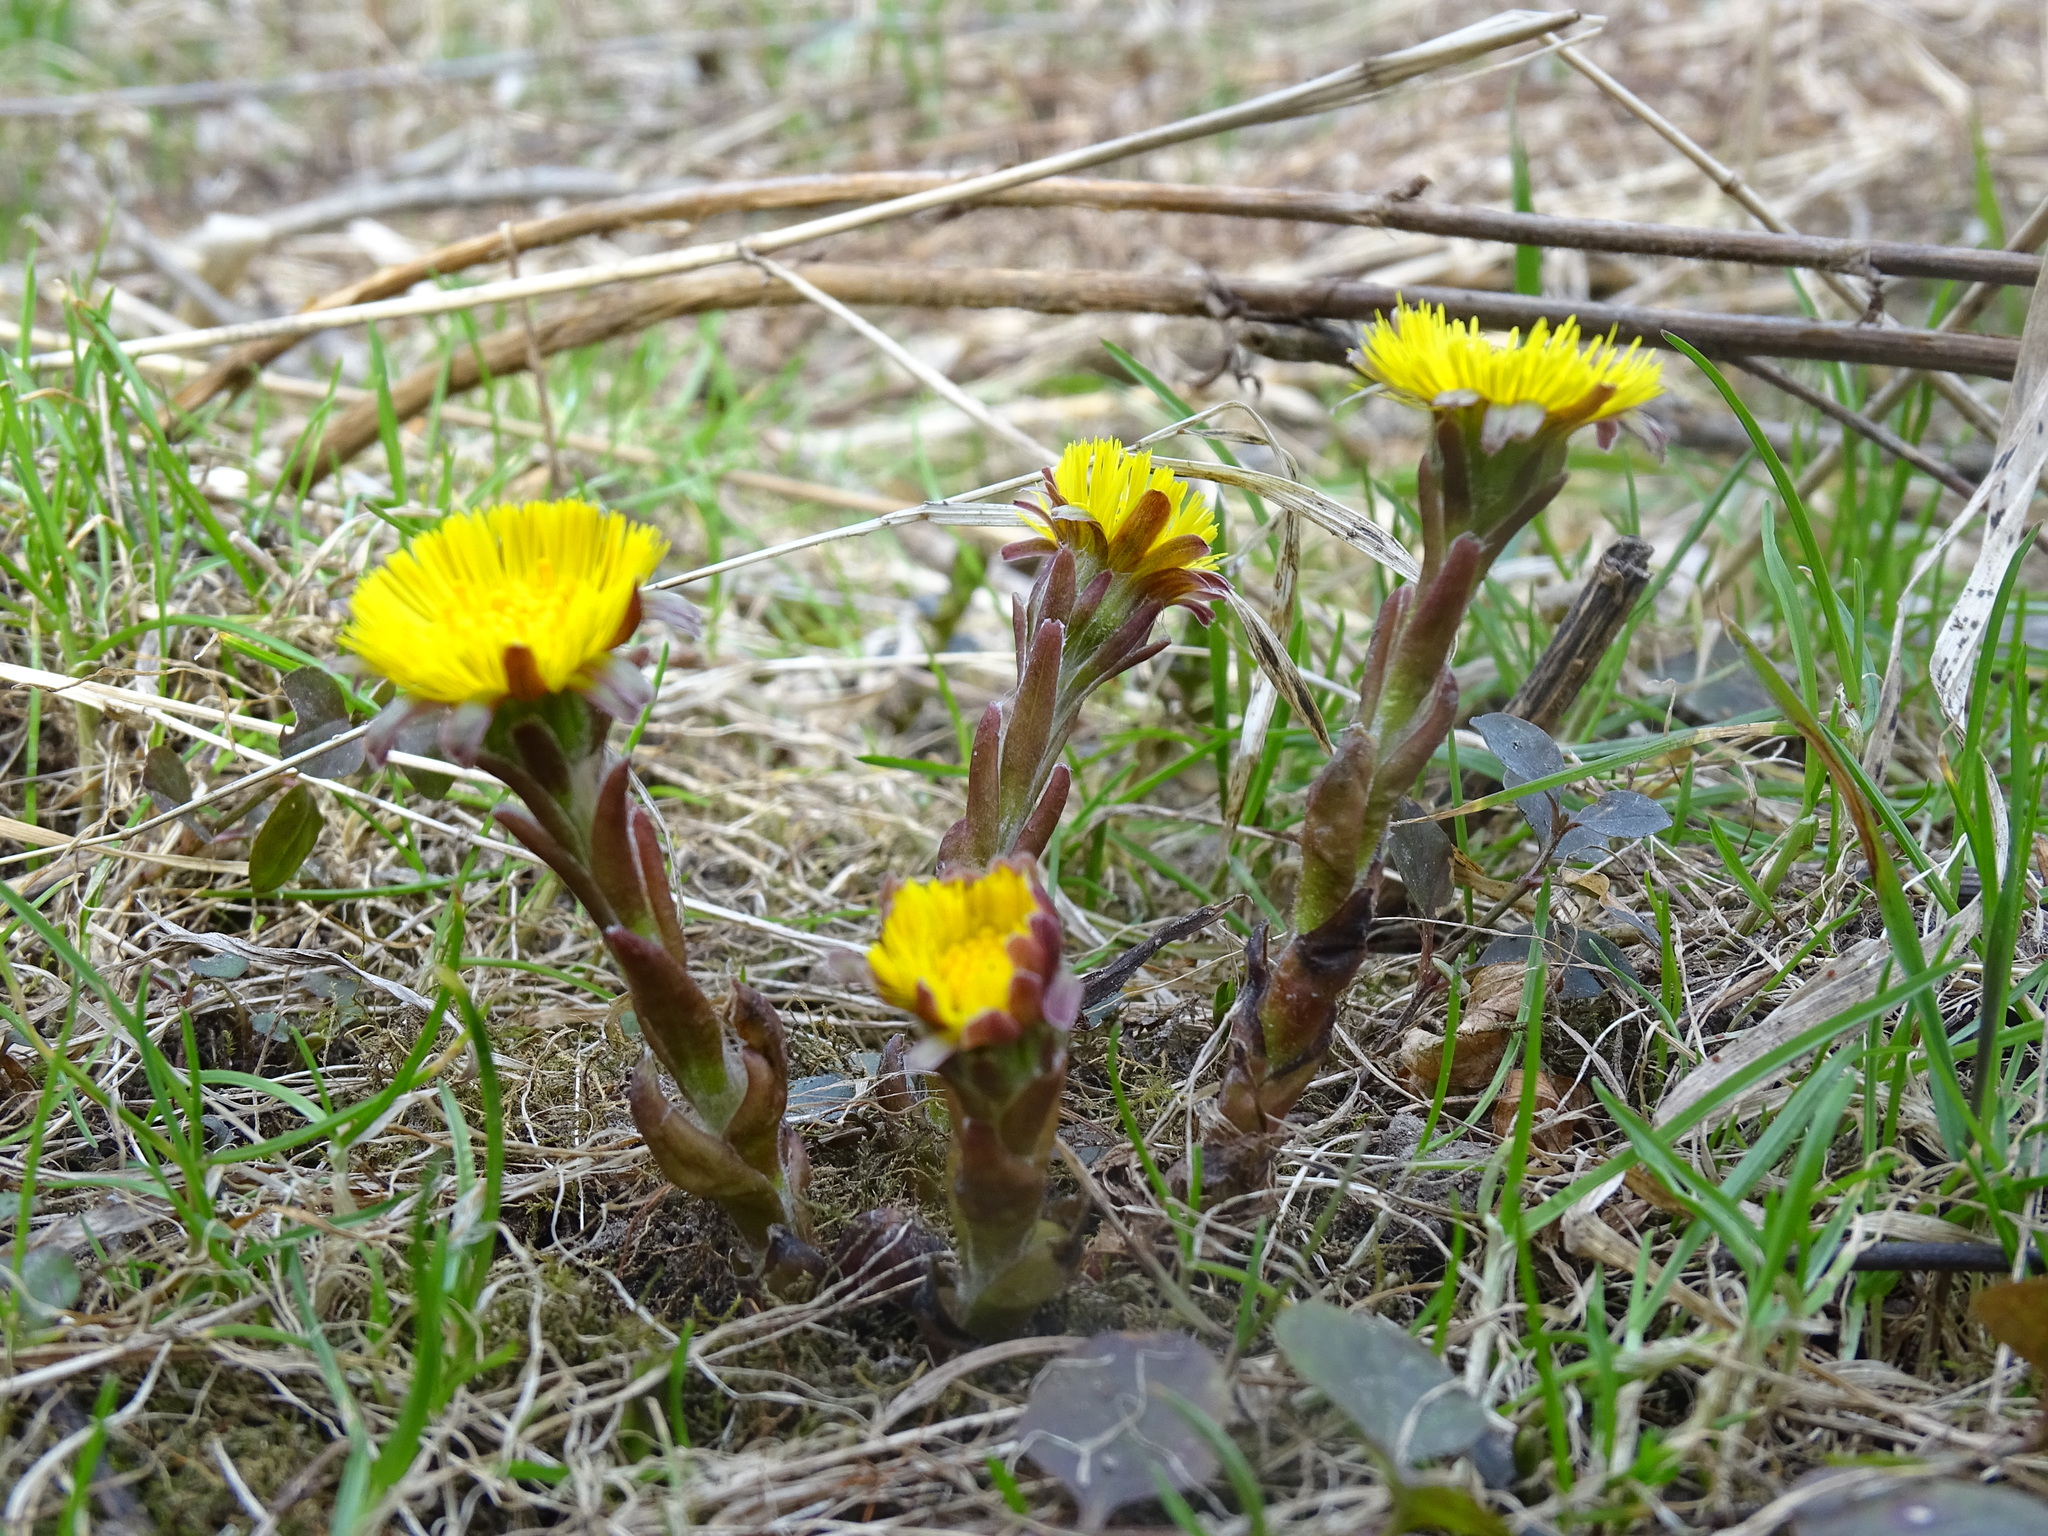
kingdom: Plantae
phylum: Tracheophyta
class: Magnoliopsida
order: Asterales
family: Asteraceae
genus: Tussilago
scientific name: Tussilago farfara
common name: Coltsfoot
